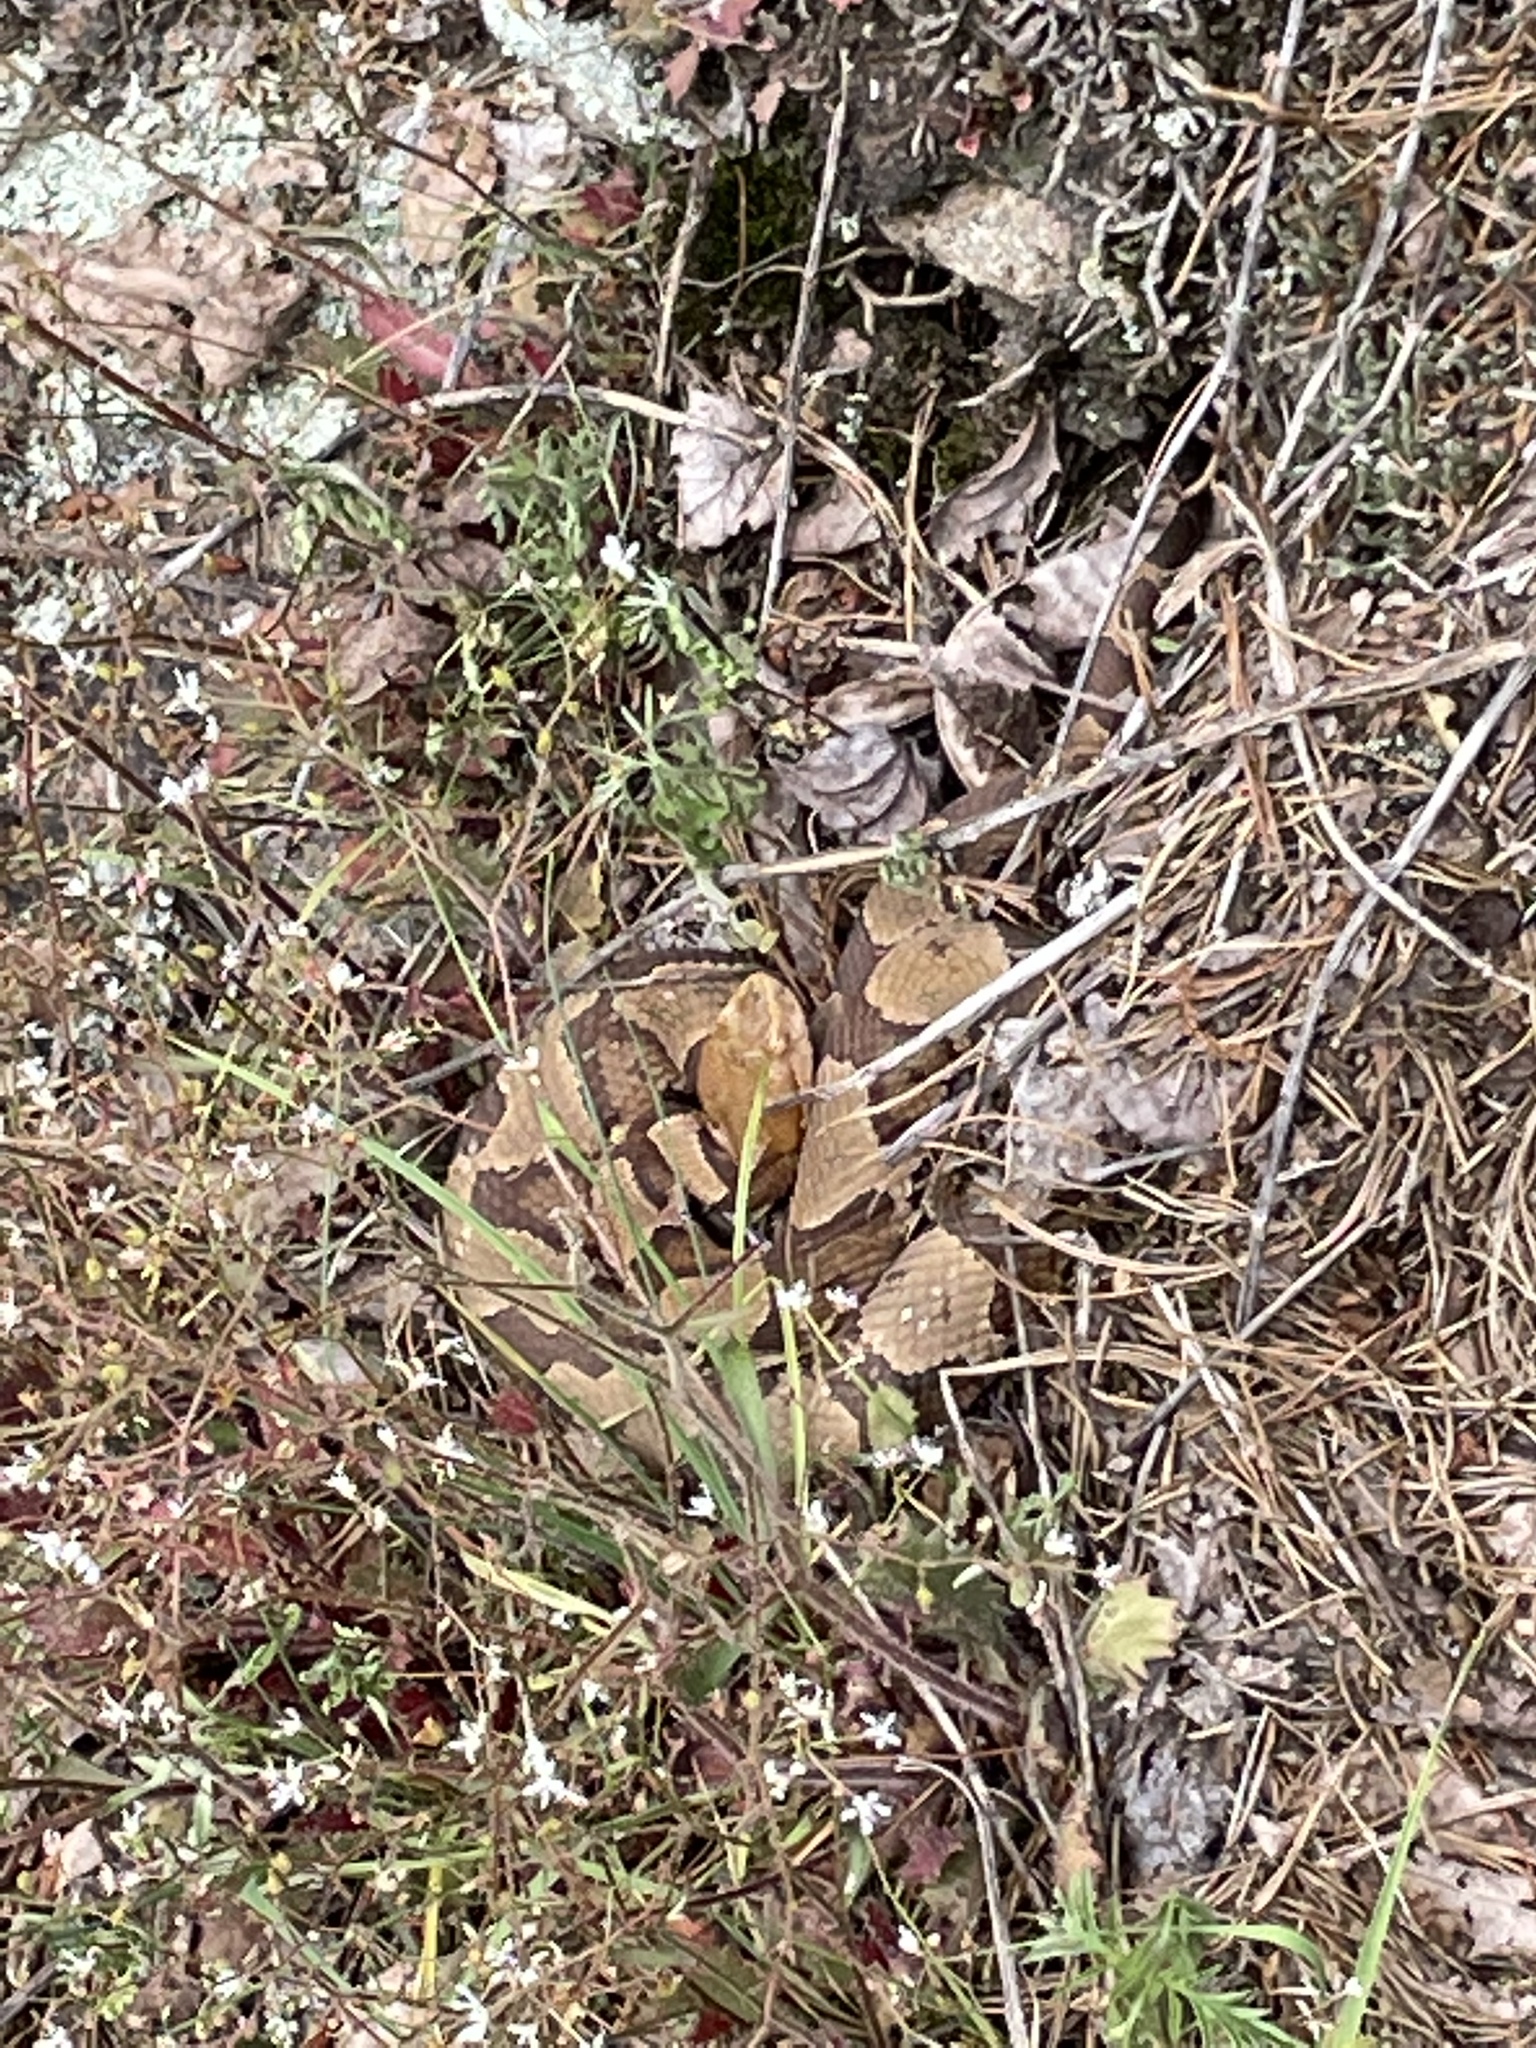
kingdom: Animalia
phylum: Chordata
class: Squamata
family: Viperidae
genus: Agkistrodon
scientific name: Agkistrodon contortrix
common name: Northern copperhead
